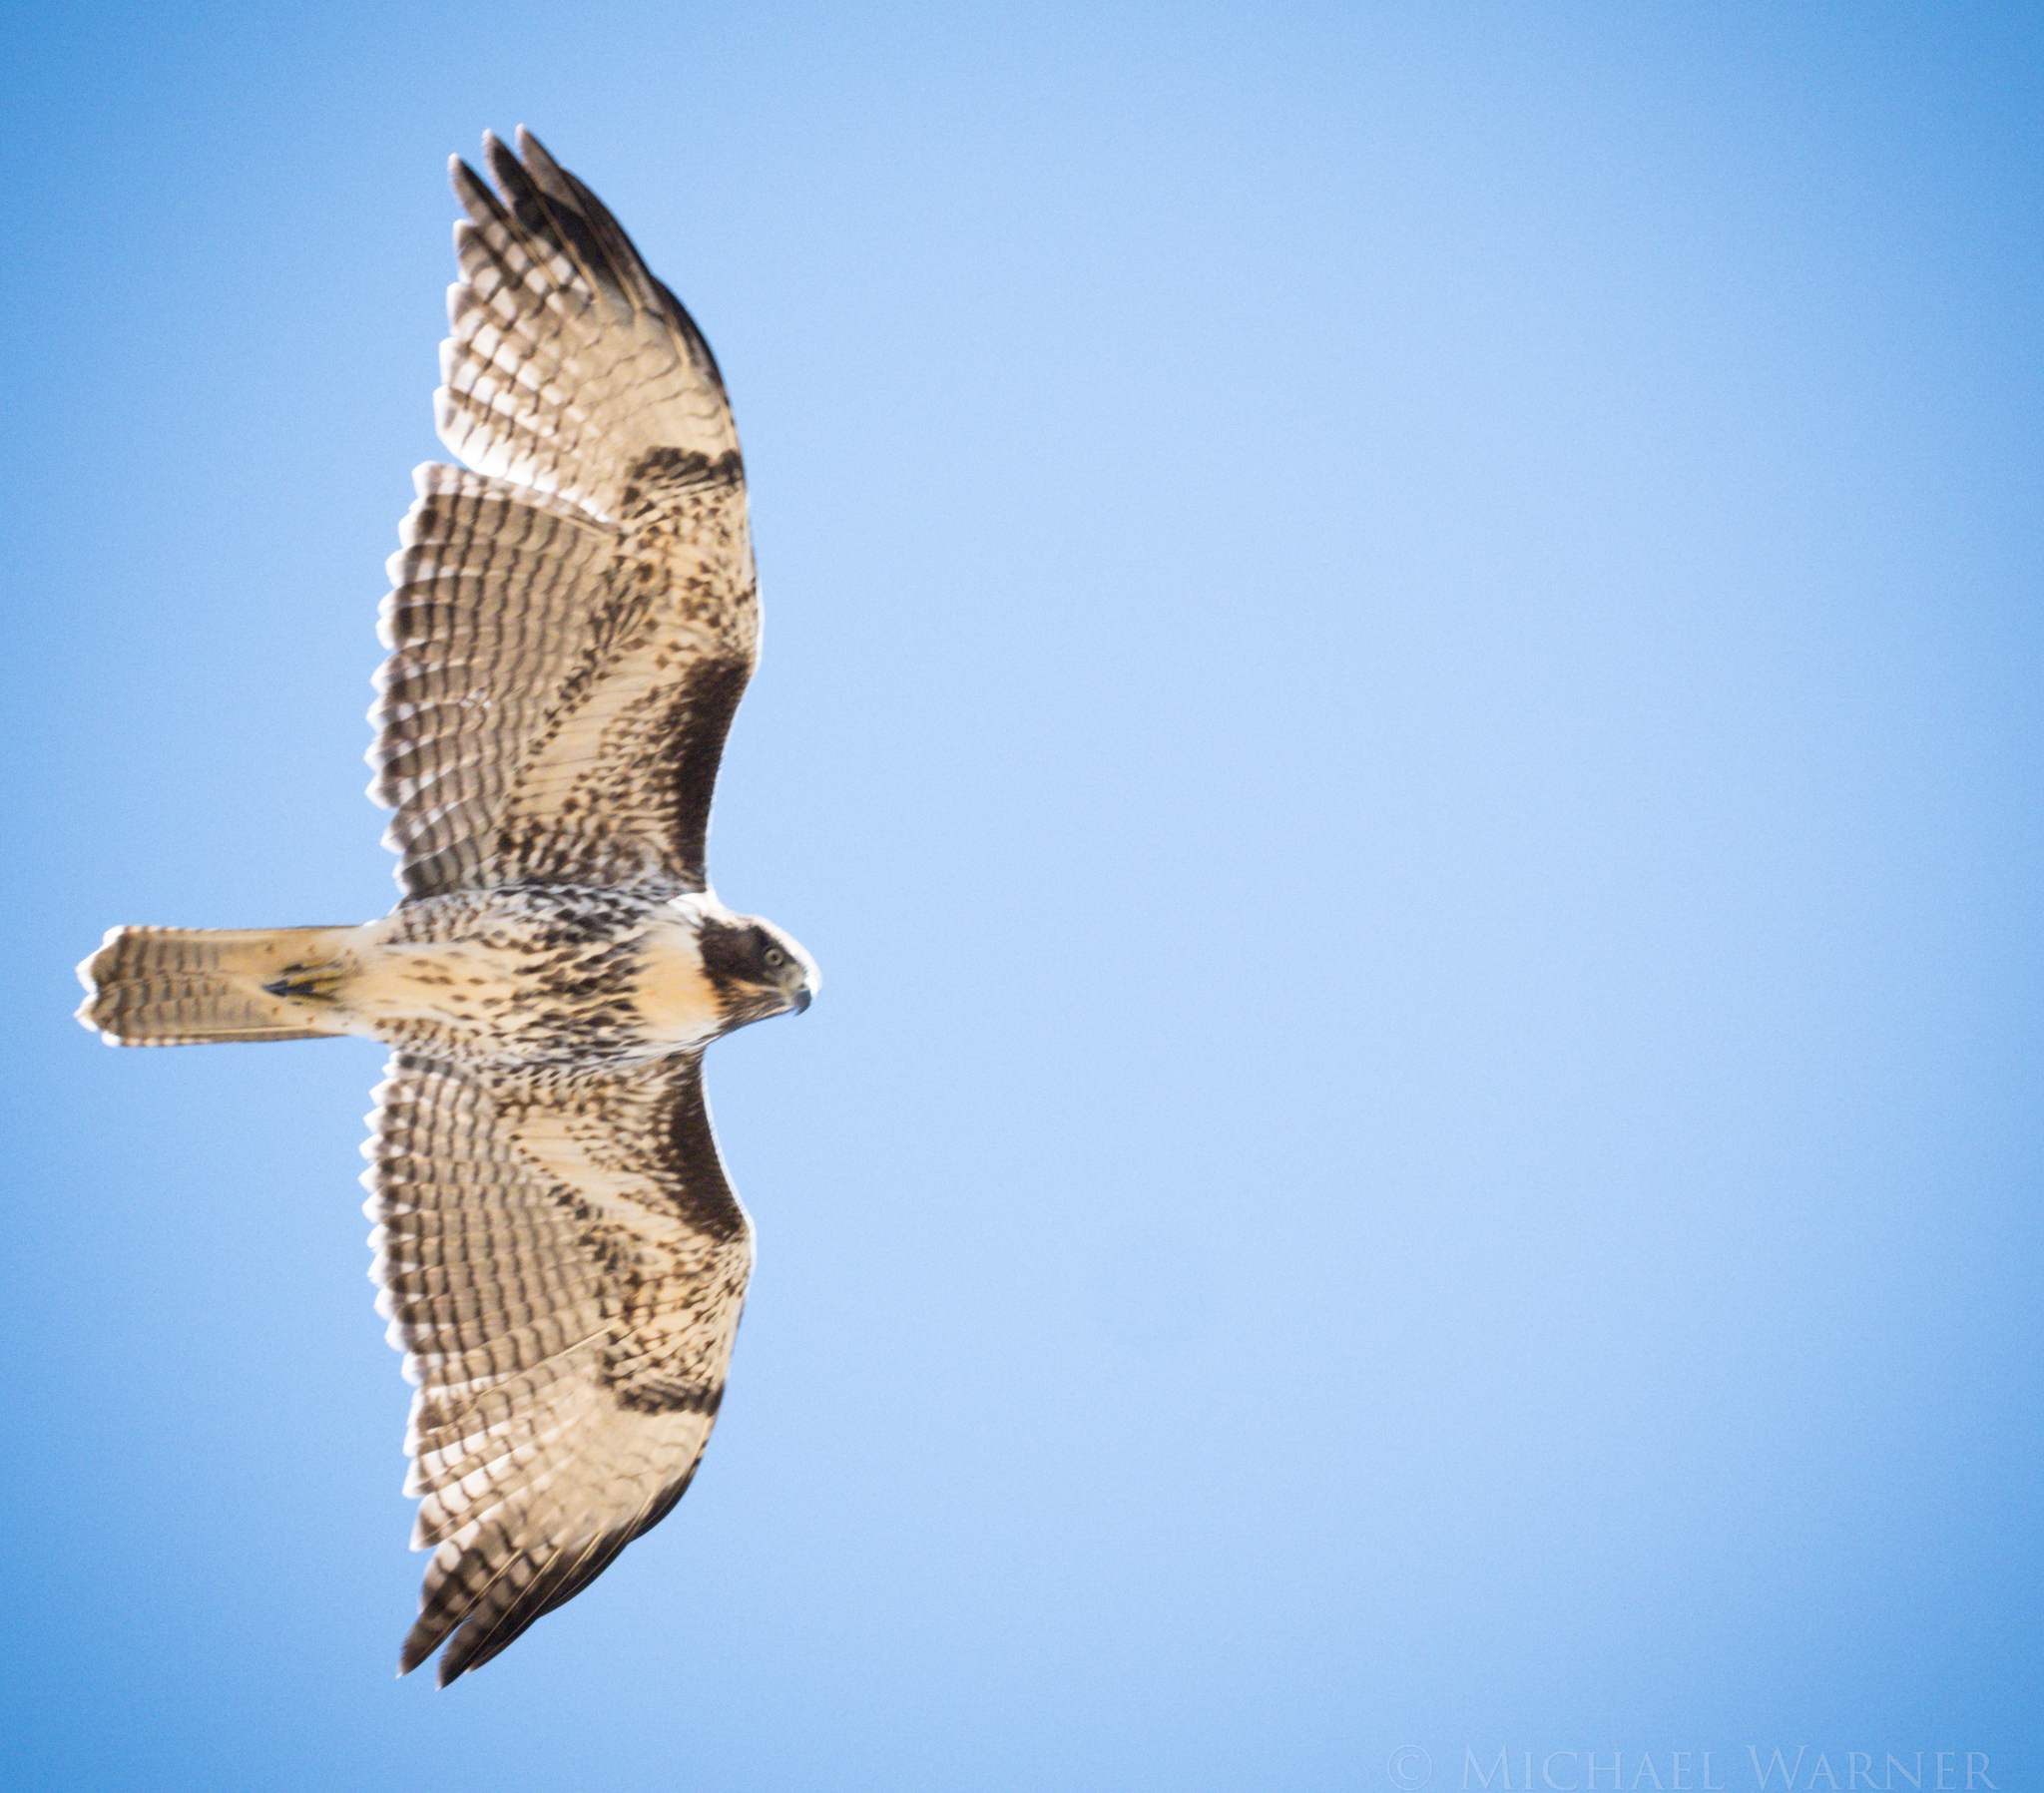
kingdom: Animalia
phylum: Chordata
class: Aves
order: Accipitriformes
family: Accipitridae
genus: Buteo
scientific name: Buteo jamaicensis
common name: Red-tailed hawk
